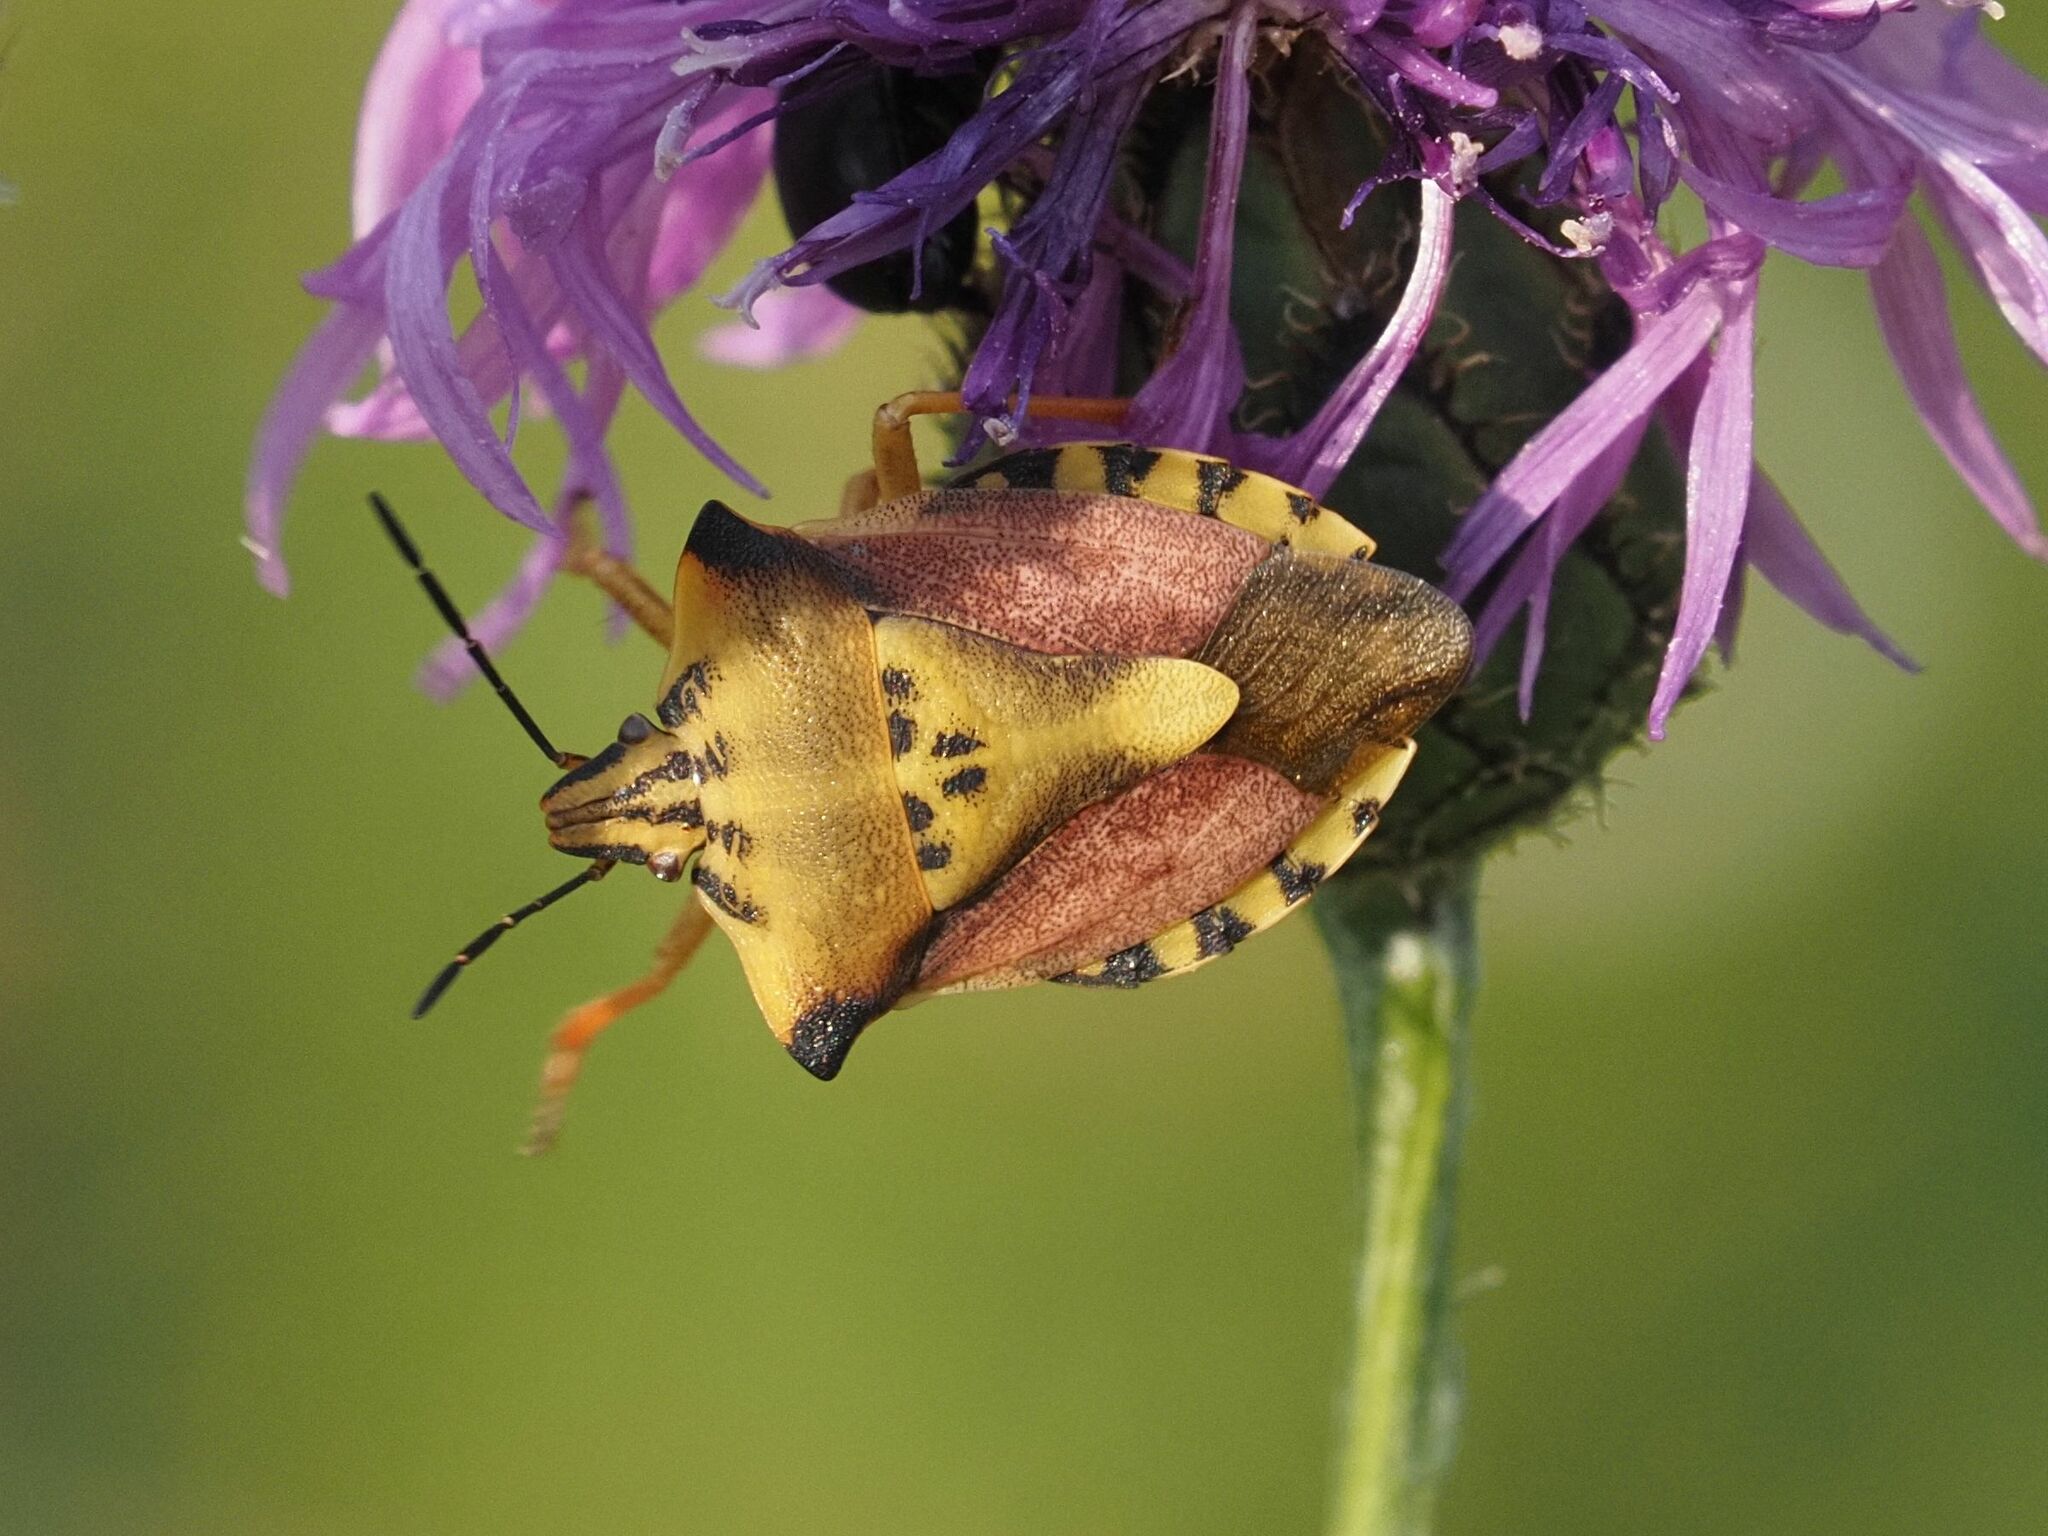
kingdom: Animalia
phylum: Arthropoda
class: Insecta
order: Hemiptera
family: Pentatomidae
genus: Carpocoris
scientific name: Carpocoris fuscispinus
